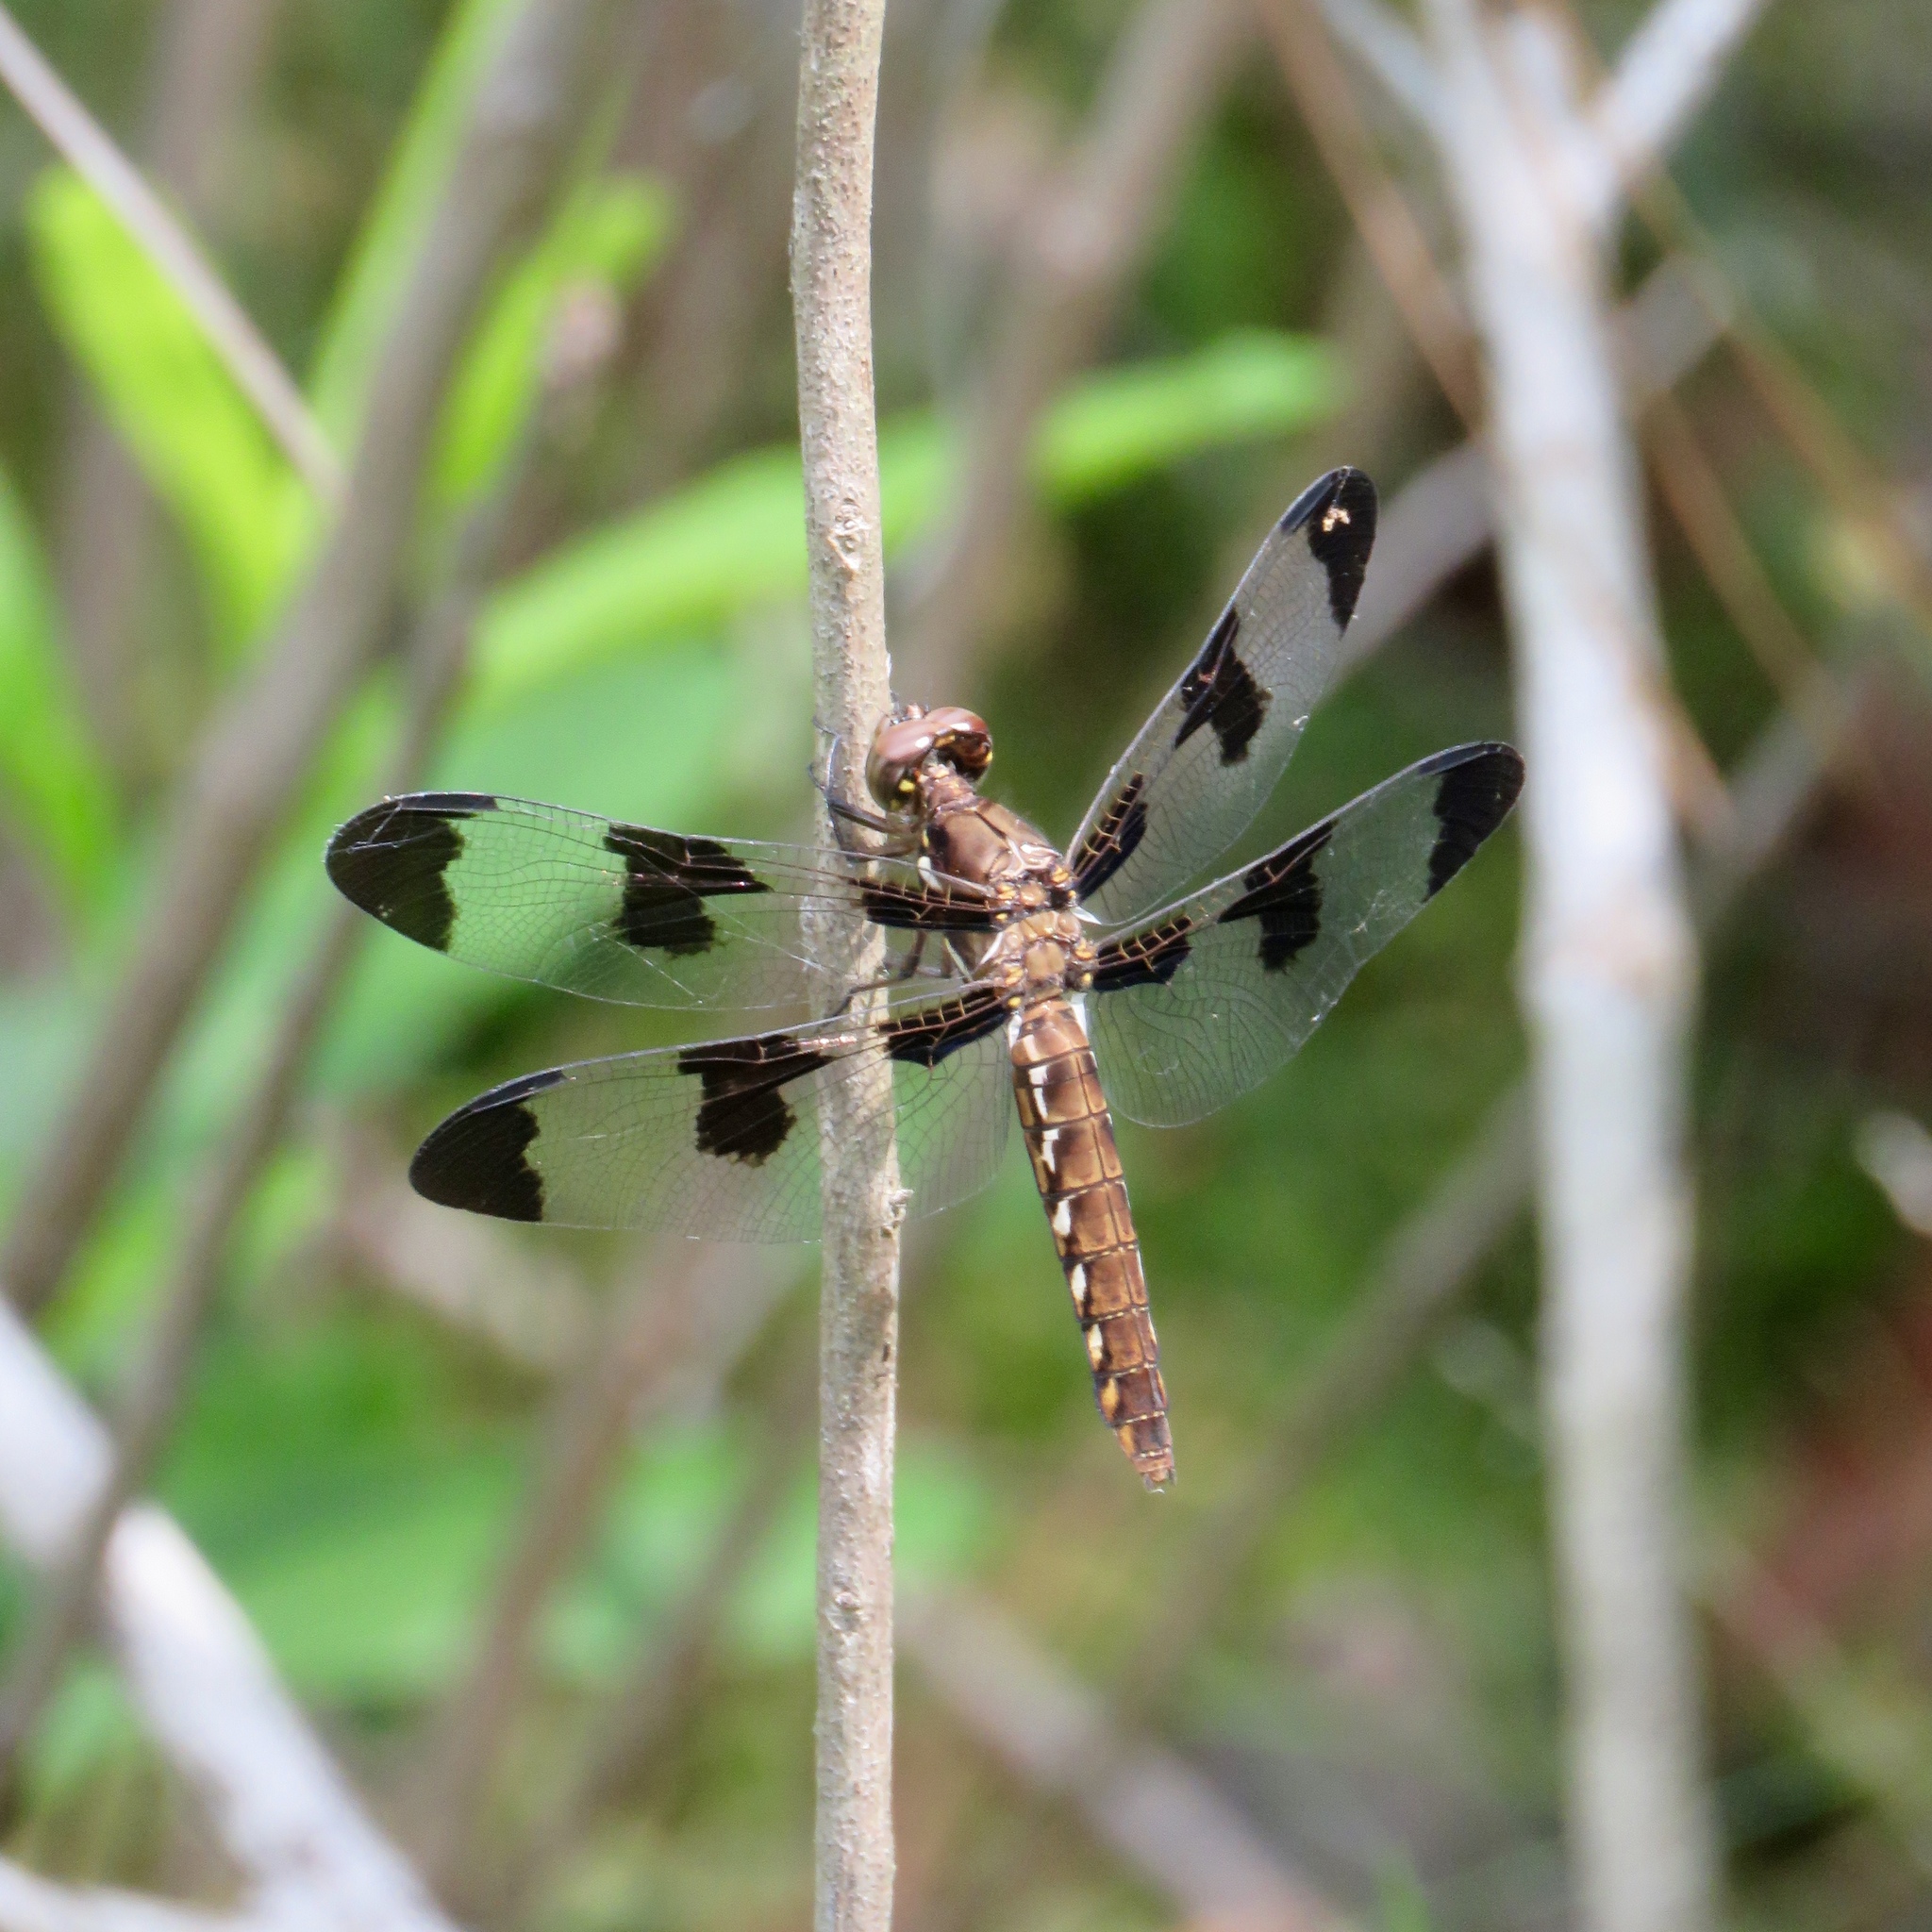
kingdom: Animalia
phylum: Arthropoda
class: Insecta
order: Odonata
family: Libellulidae
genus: Plathemis
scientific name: Plathemis lydia
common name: Common whitetail
